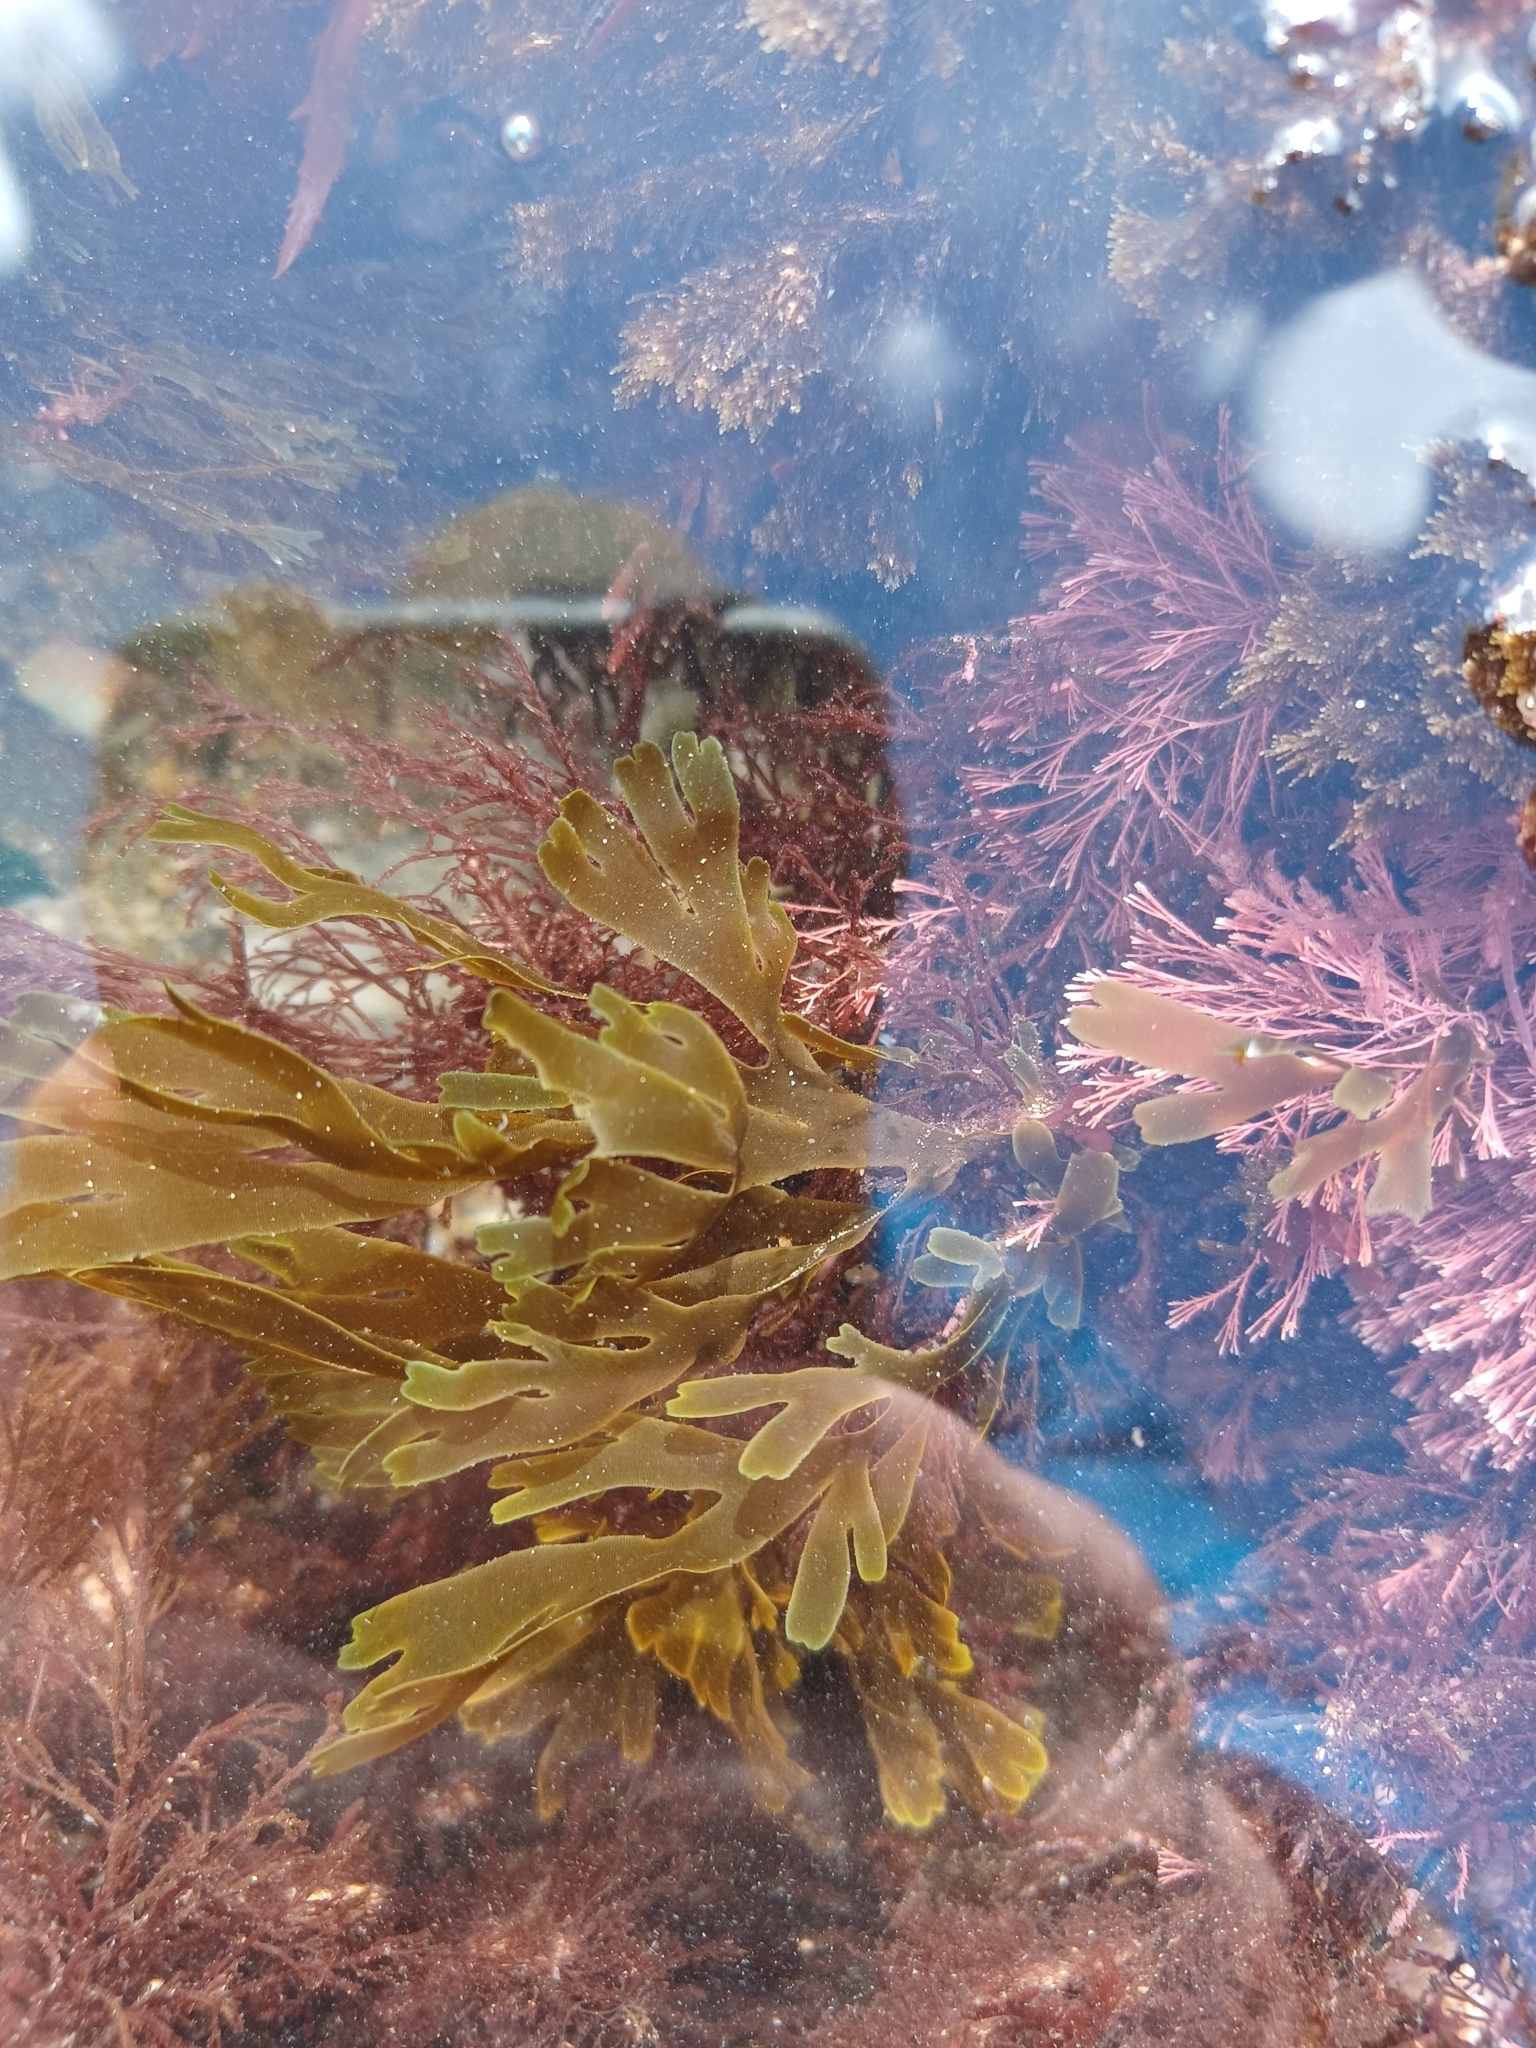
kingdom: Chromista
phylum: Ochrophyta
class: Phaeophyceae
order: Dictyotales
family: Dictyotaceae
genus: Dictyota
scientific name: Dictyota dichotoma
